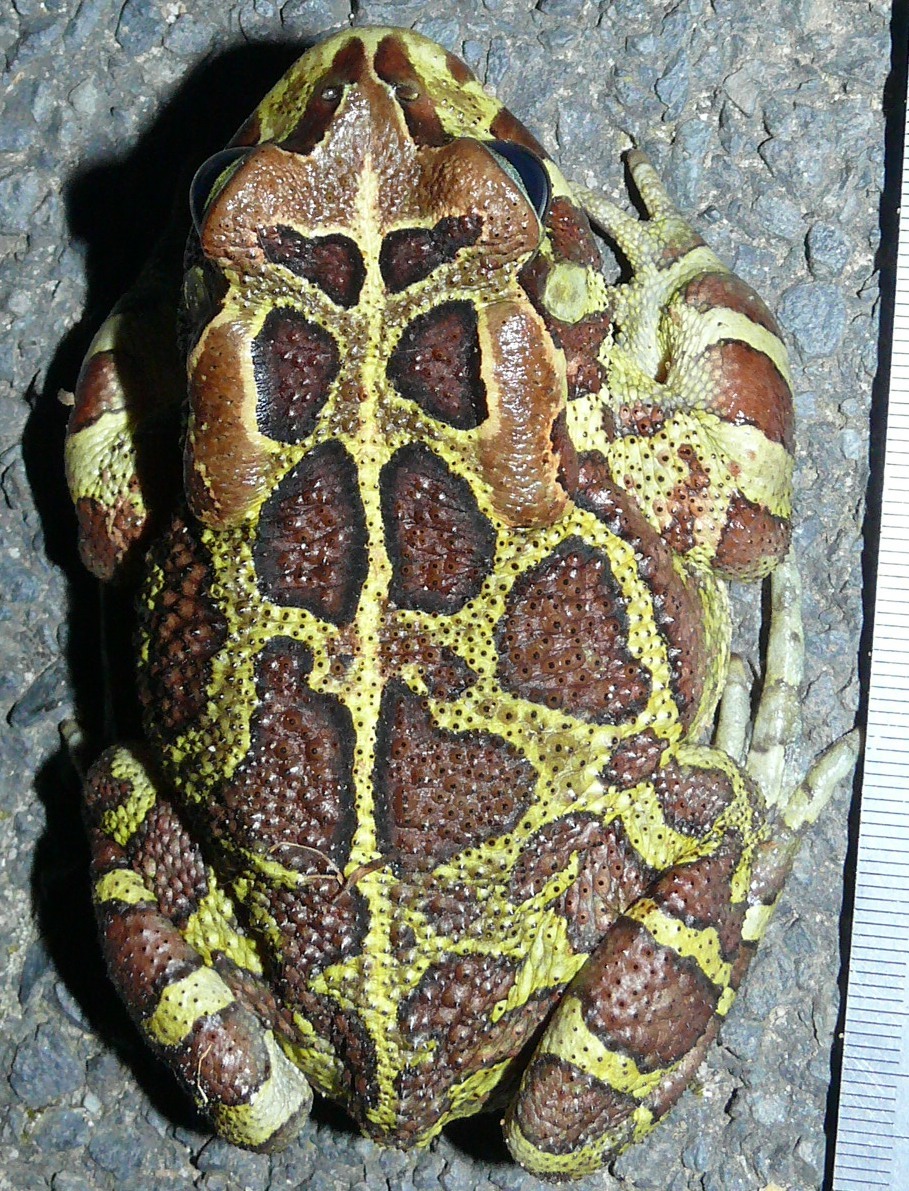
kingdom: Animalia
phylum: Chordata
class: Amphibia
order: Anura
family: Bufonidae
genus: Sclerophrys
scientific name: Sclerophrys pantherina
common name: Panther toad
